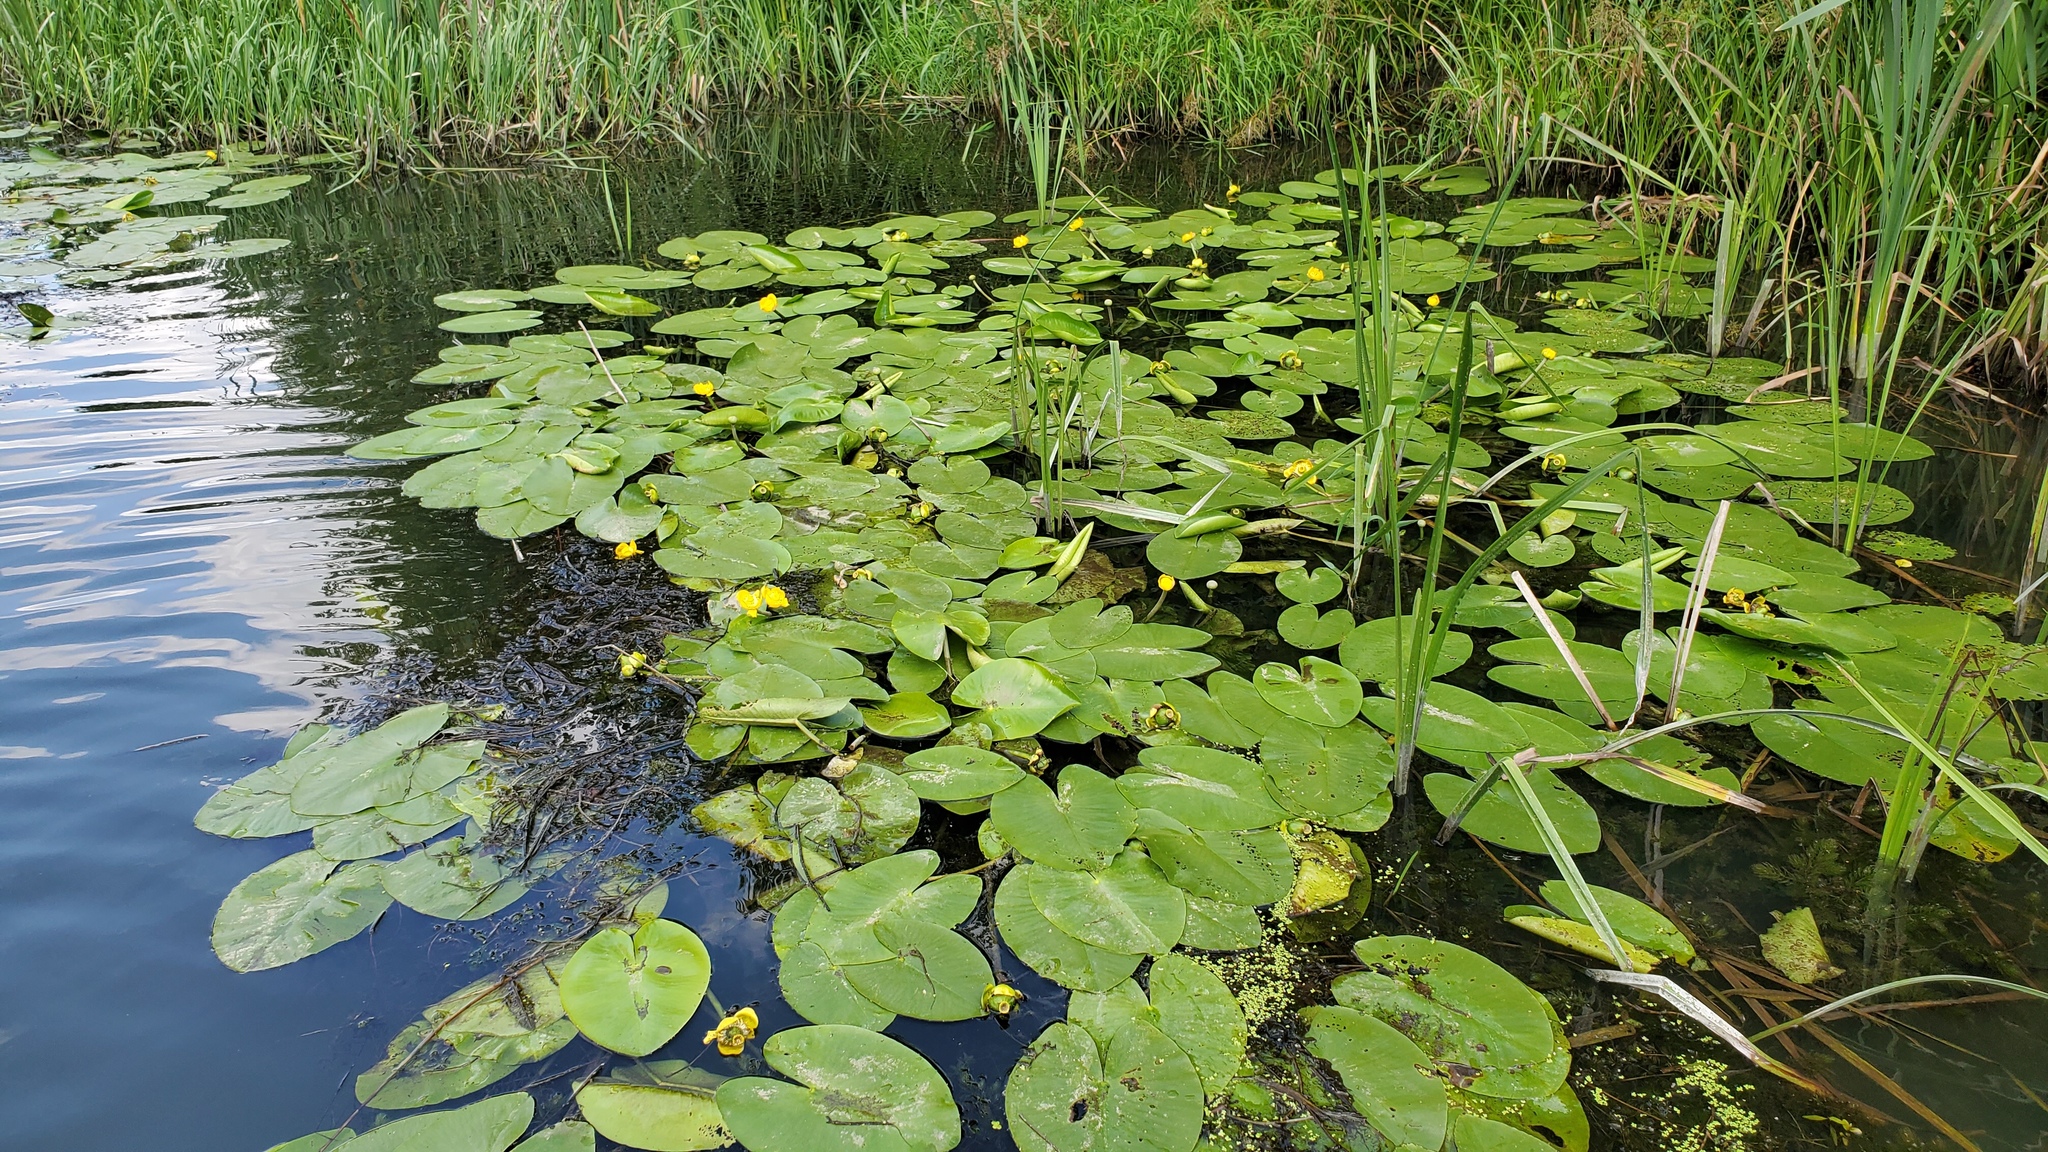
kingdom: Plantae
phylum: Tracheophyta
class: Magnoliopsida
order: Nymphaeales
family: Nymphaeaceae
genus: Nuphar
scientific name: Nuphar lutea
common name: Yellow water-lily
